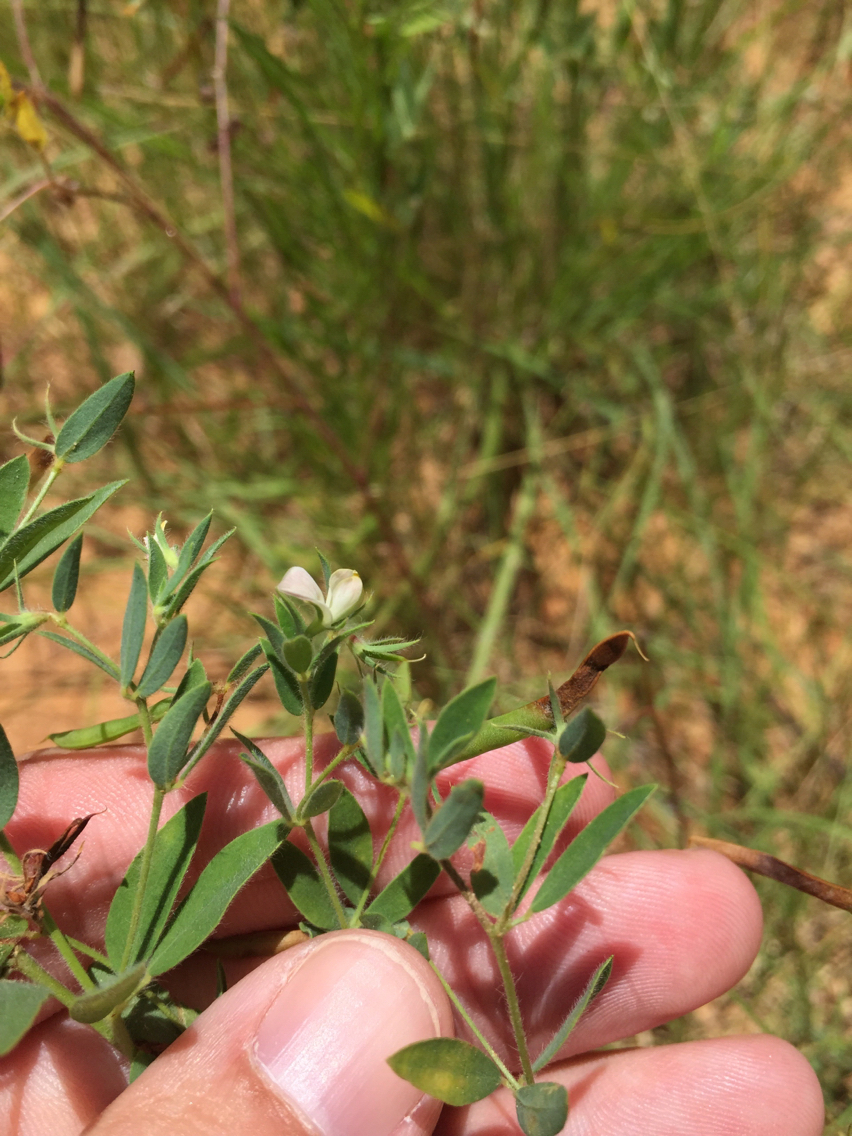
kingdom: Plantae
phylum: Tracheophyta
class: Magnoliopsida
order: Fabales
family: Fabaceae
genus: Acmispon
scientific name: Acmispon americanus
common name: American bird's-foot trefoil
